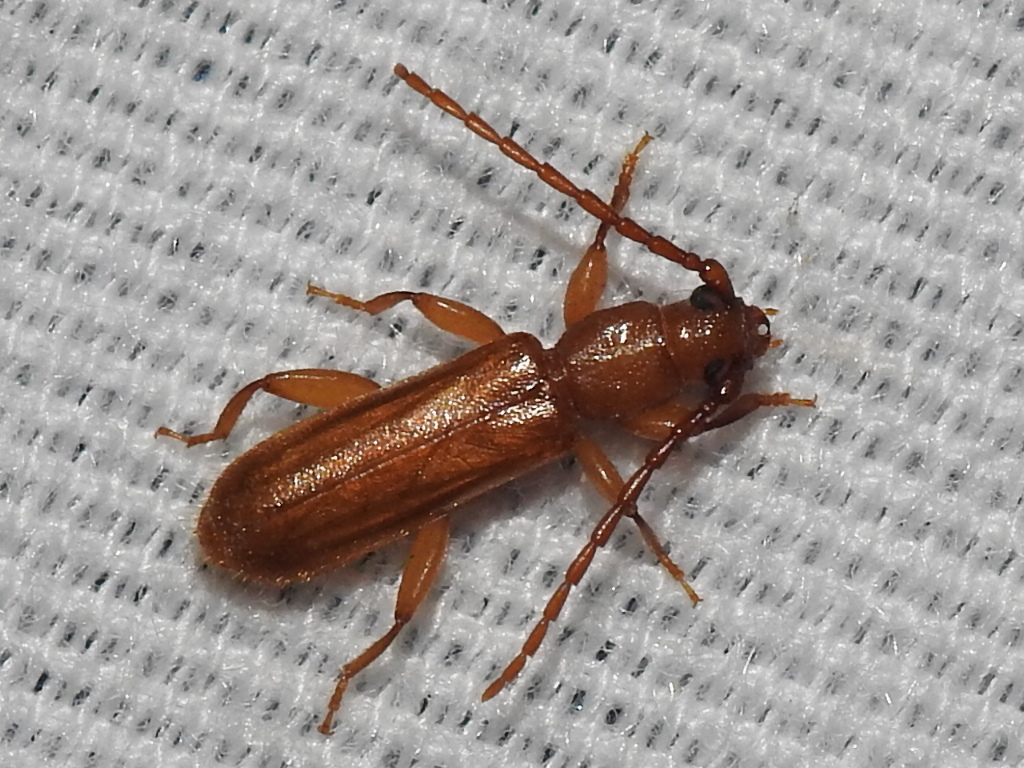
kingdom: Animalia
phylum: Arthropoda
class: Insecta
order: Coleoptera
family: Cerambycidae
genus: Smodicum
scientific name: Smodicum cucujiforme
